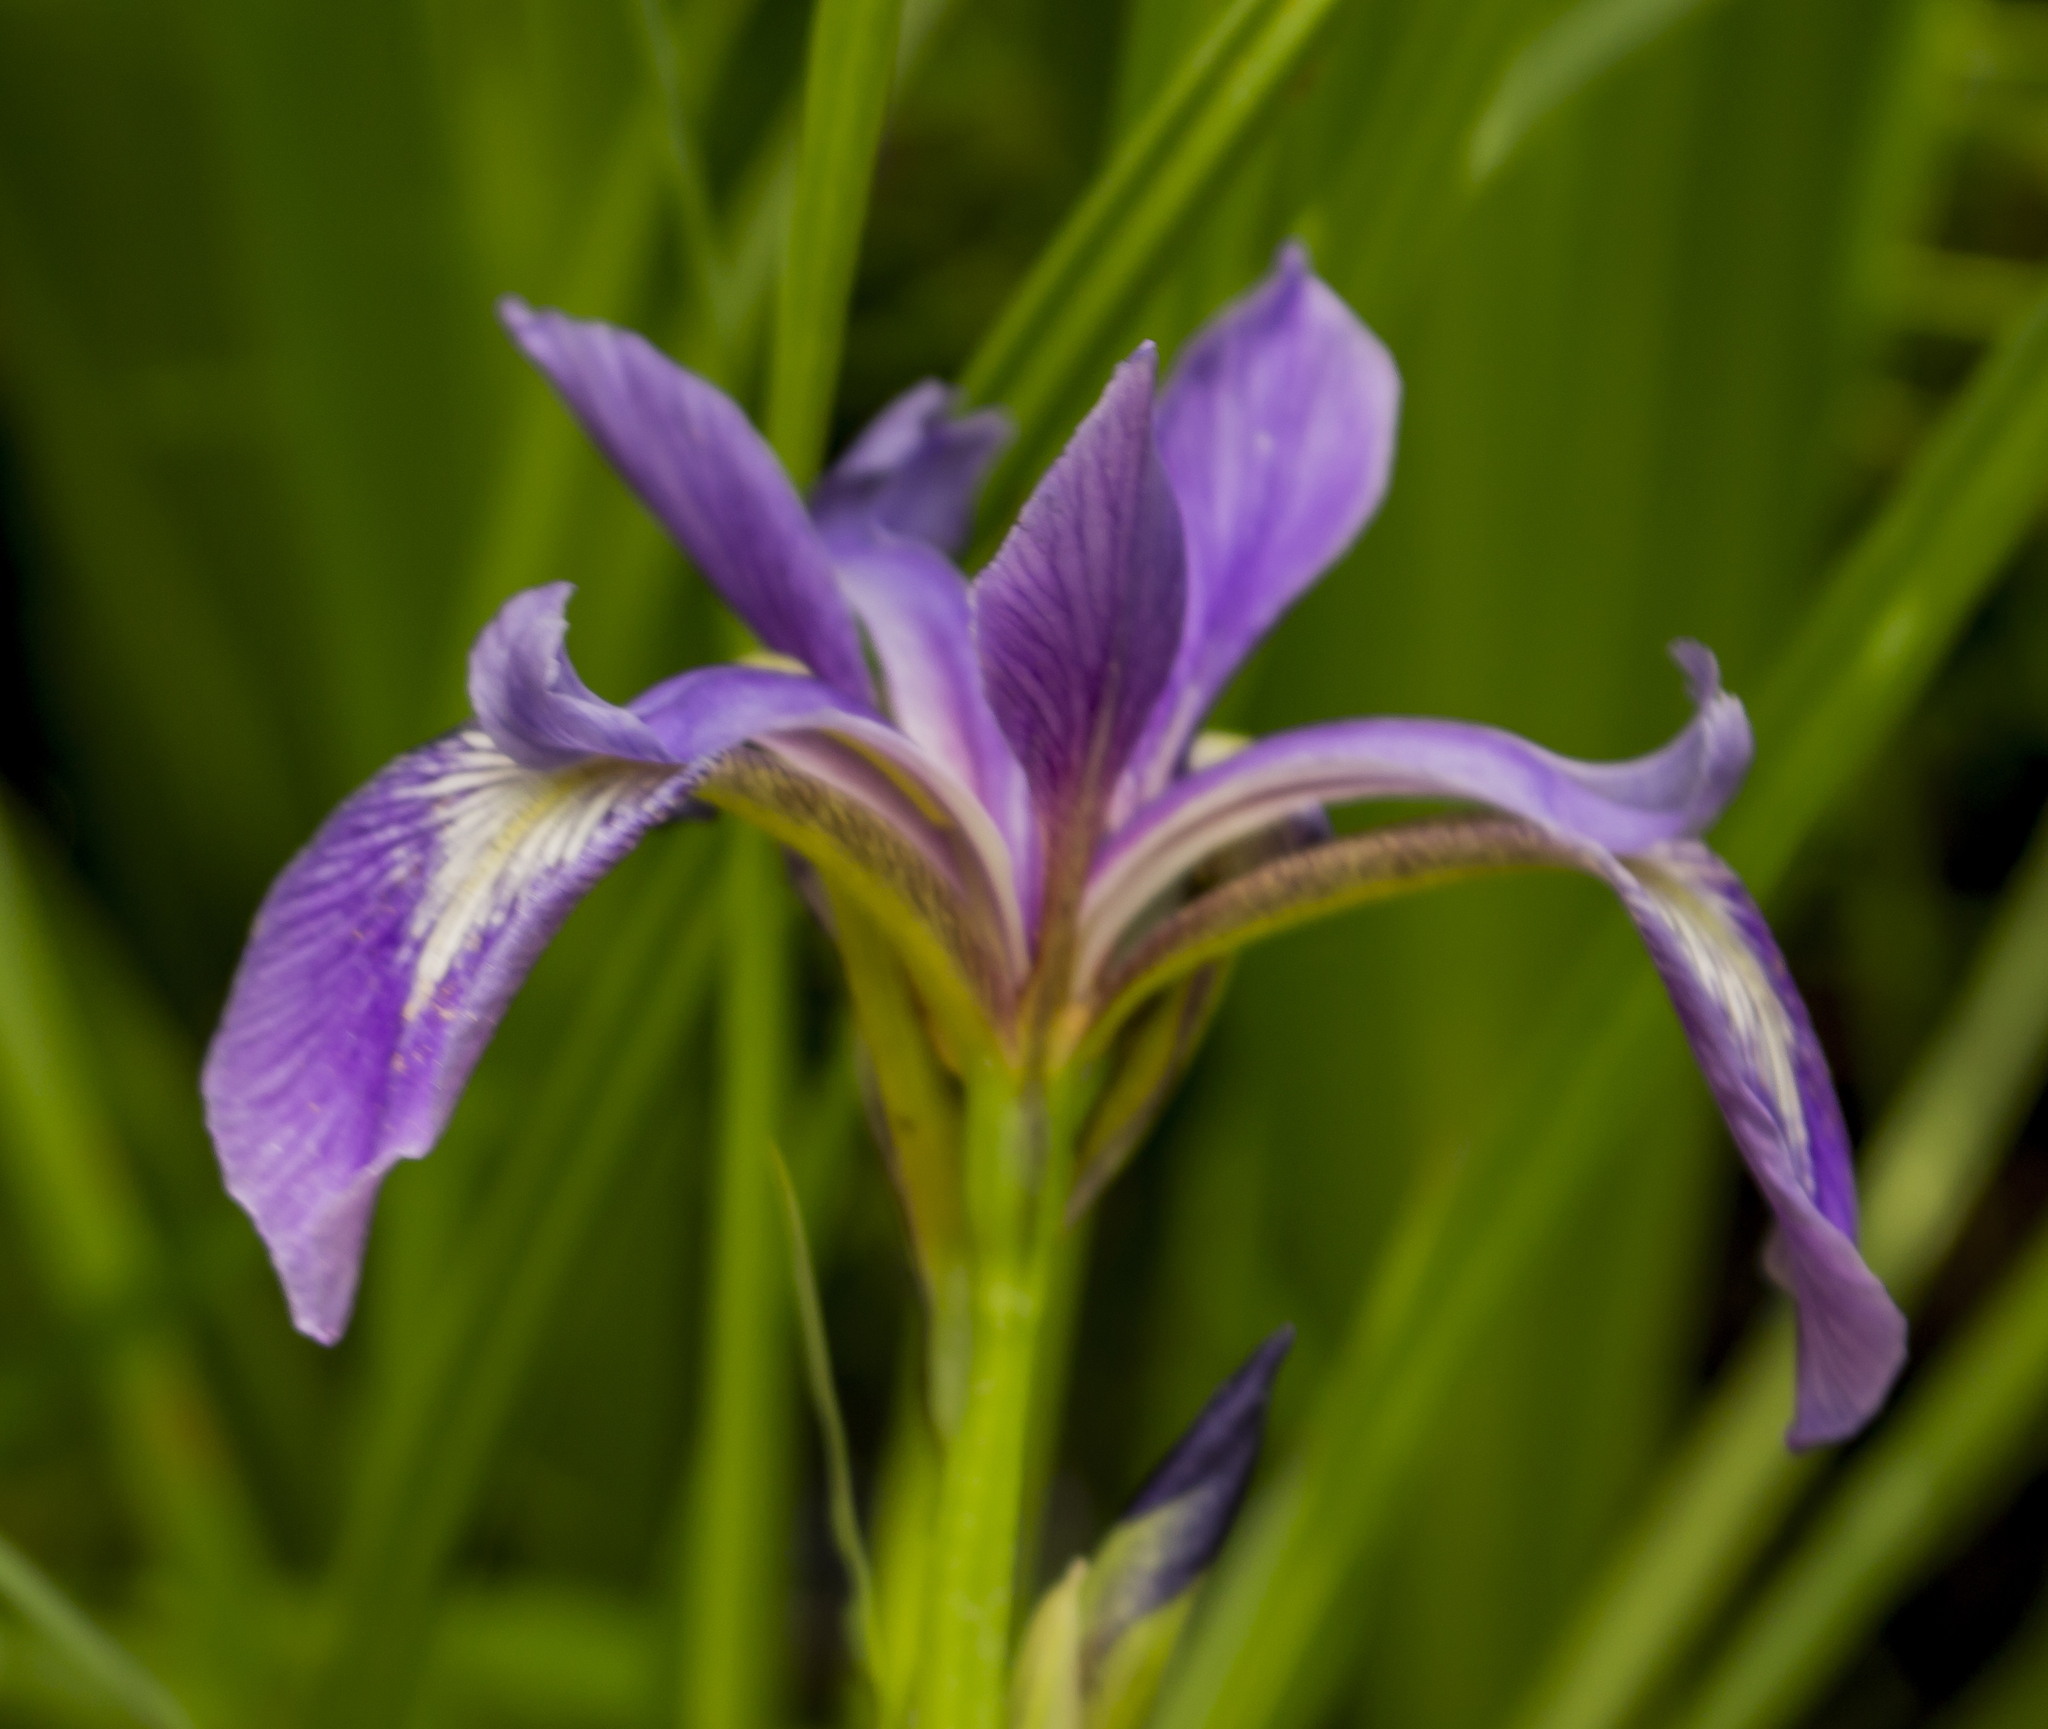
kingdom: Plantae
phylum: Tracheophyta
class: Liliopsida
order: Asparagales
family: Iridaceae
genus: Iris
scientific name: Iris versicolor
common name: Purple iris
